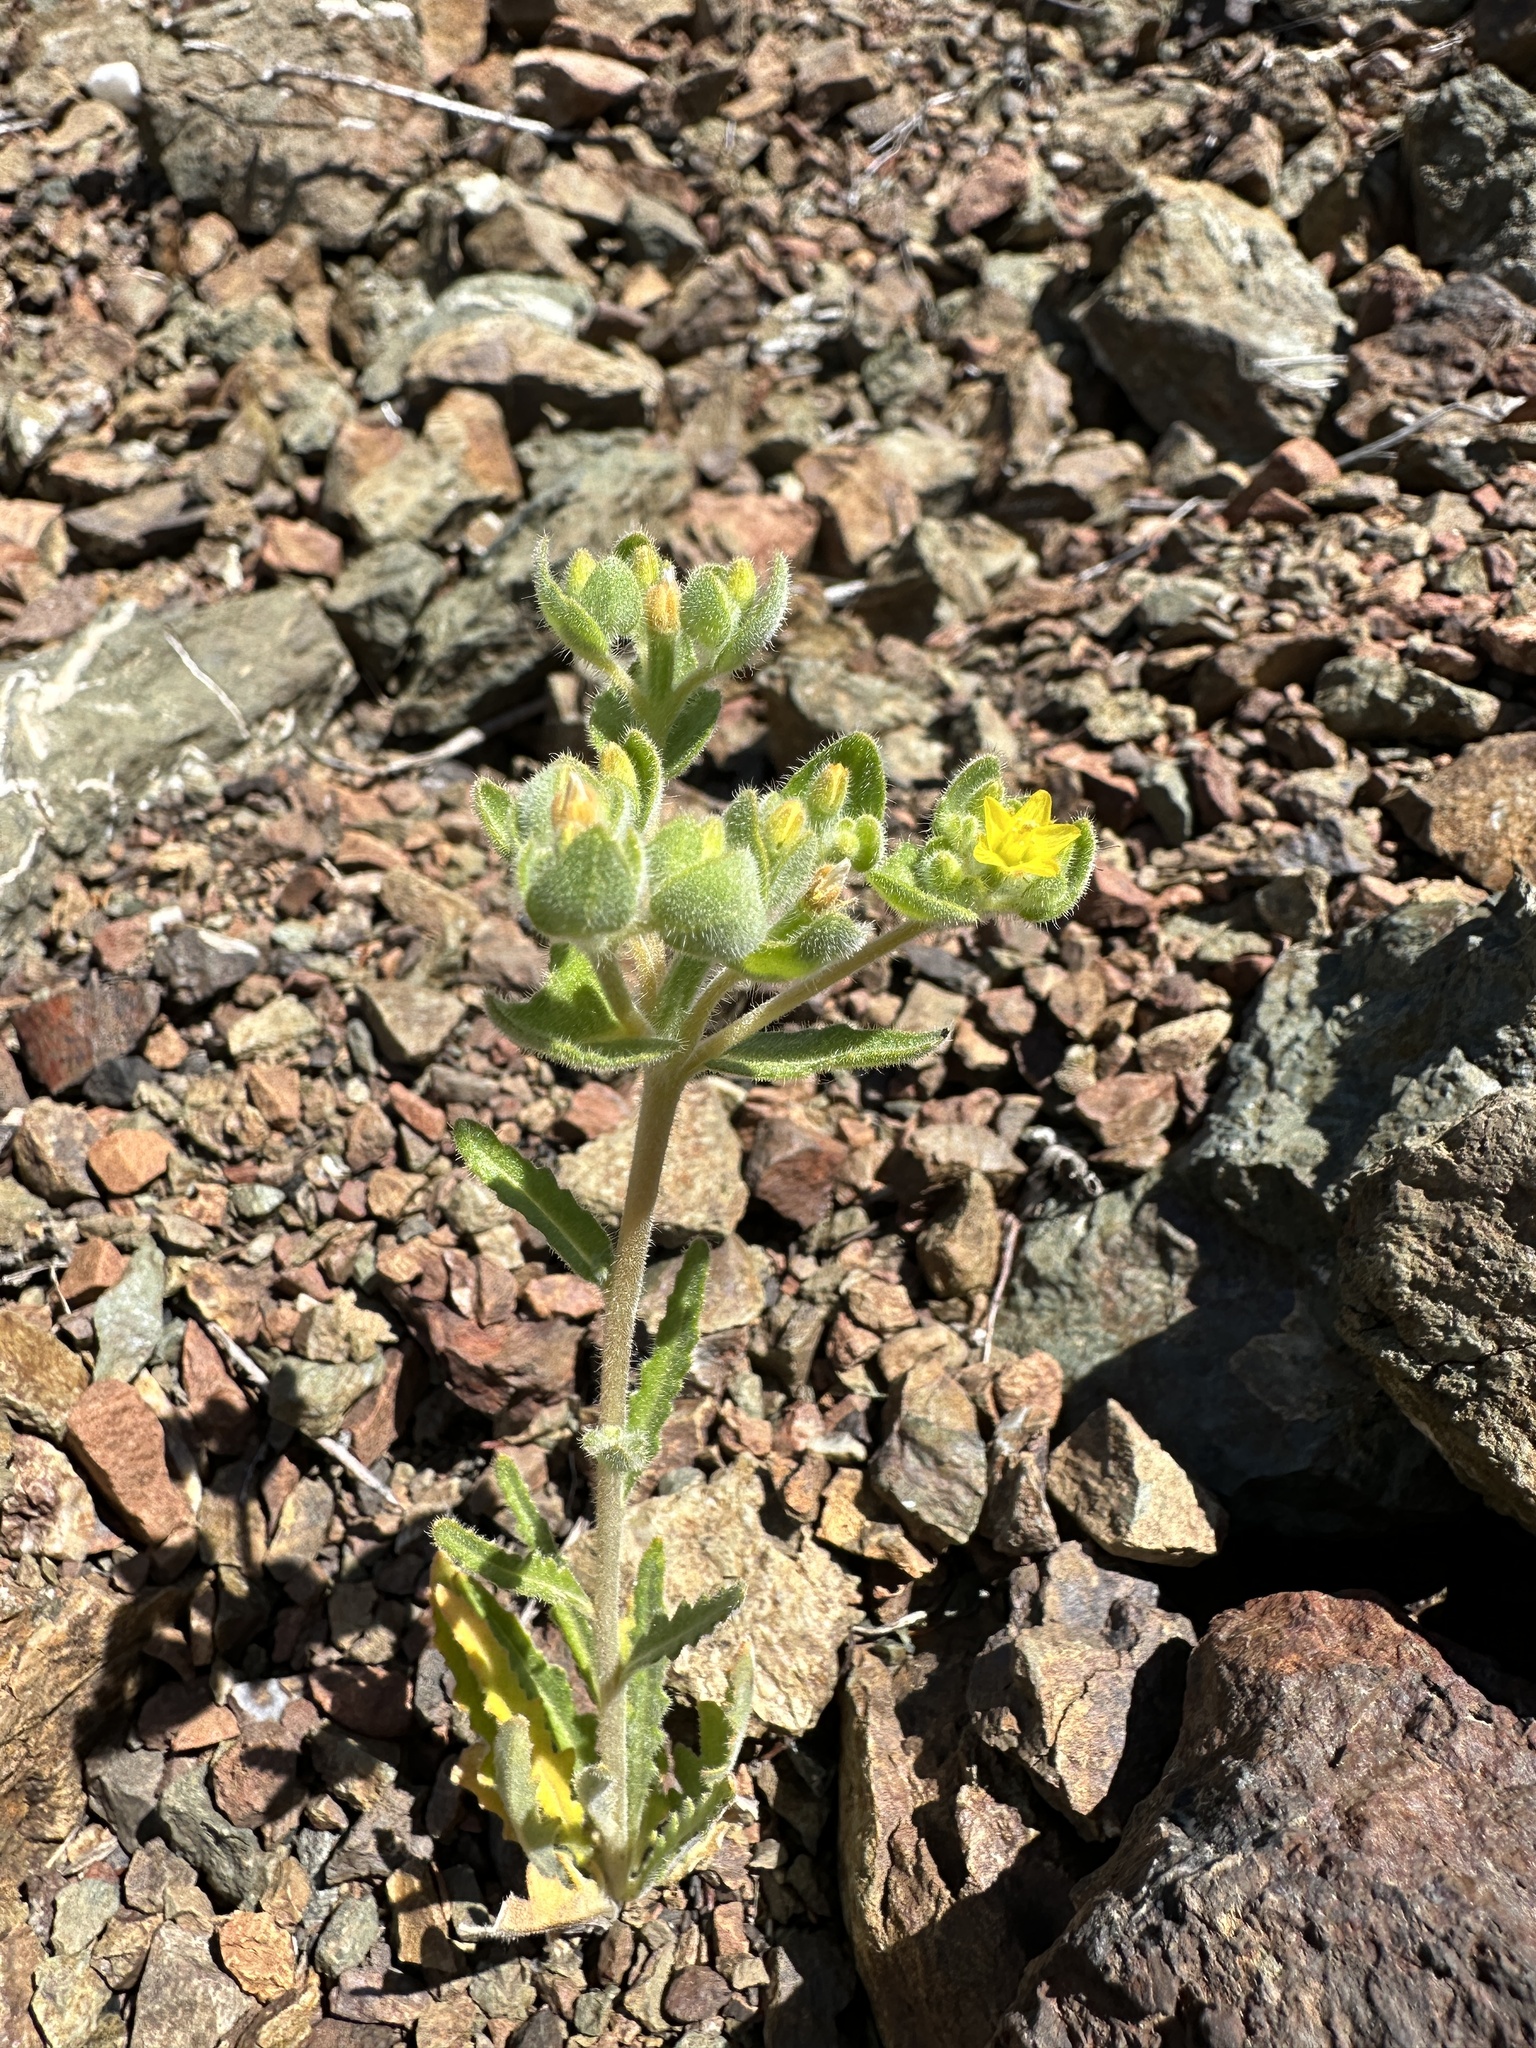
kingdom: Plantae
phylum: Tracheophyta
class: Magnoliopsida
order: Cornales
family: Loasaceae
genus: Mentzelia
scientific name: Mentzelia micrantha
